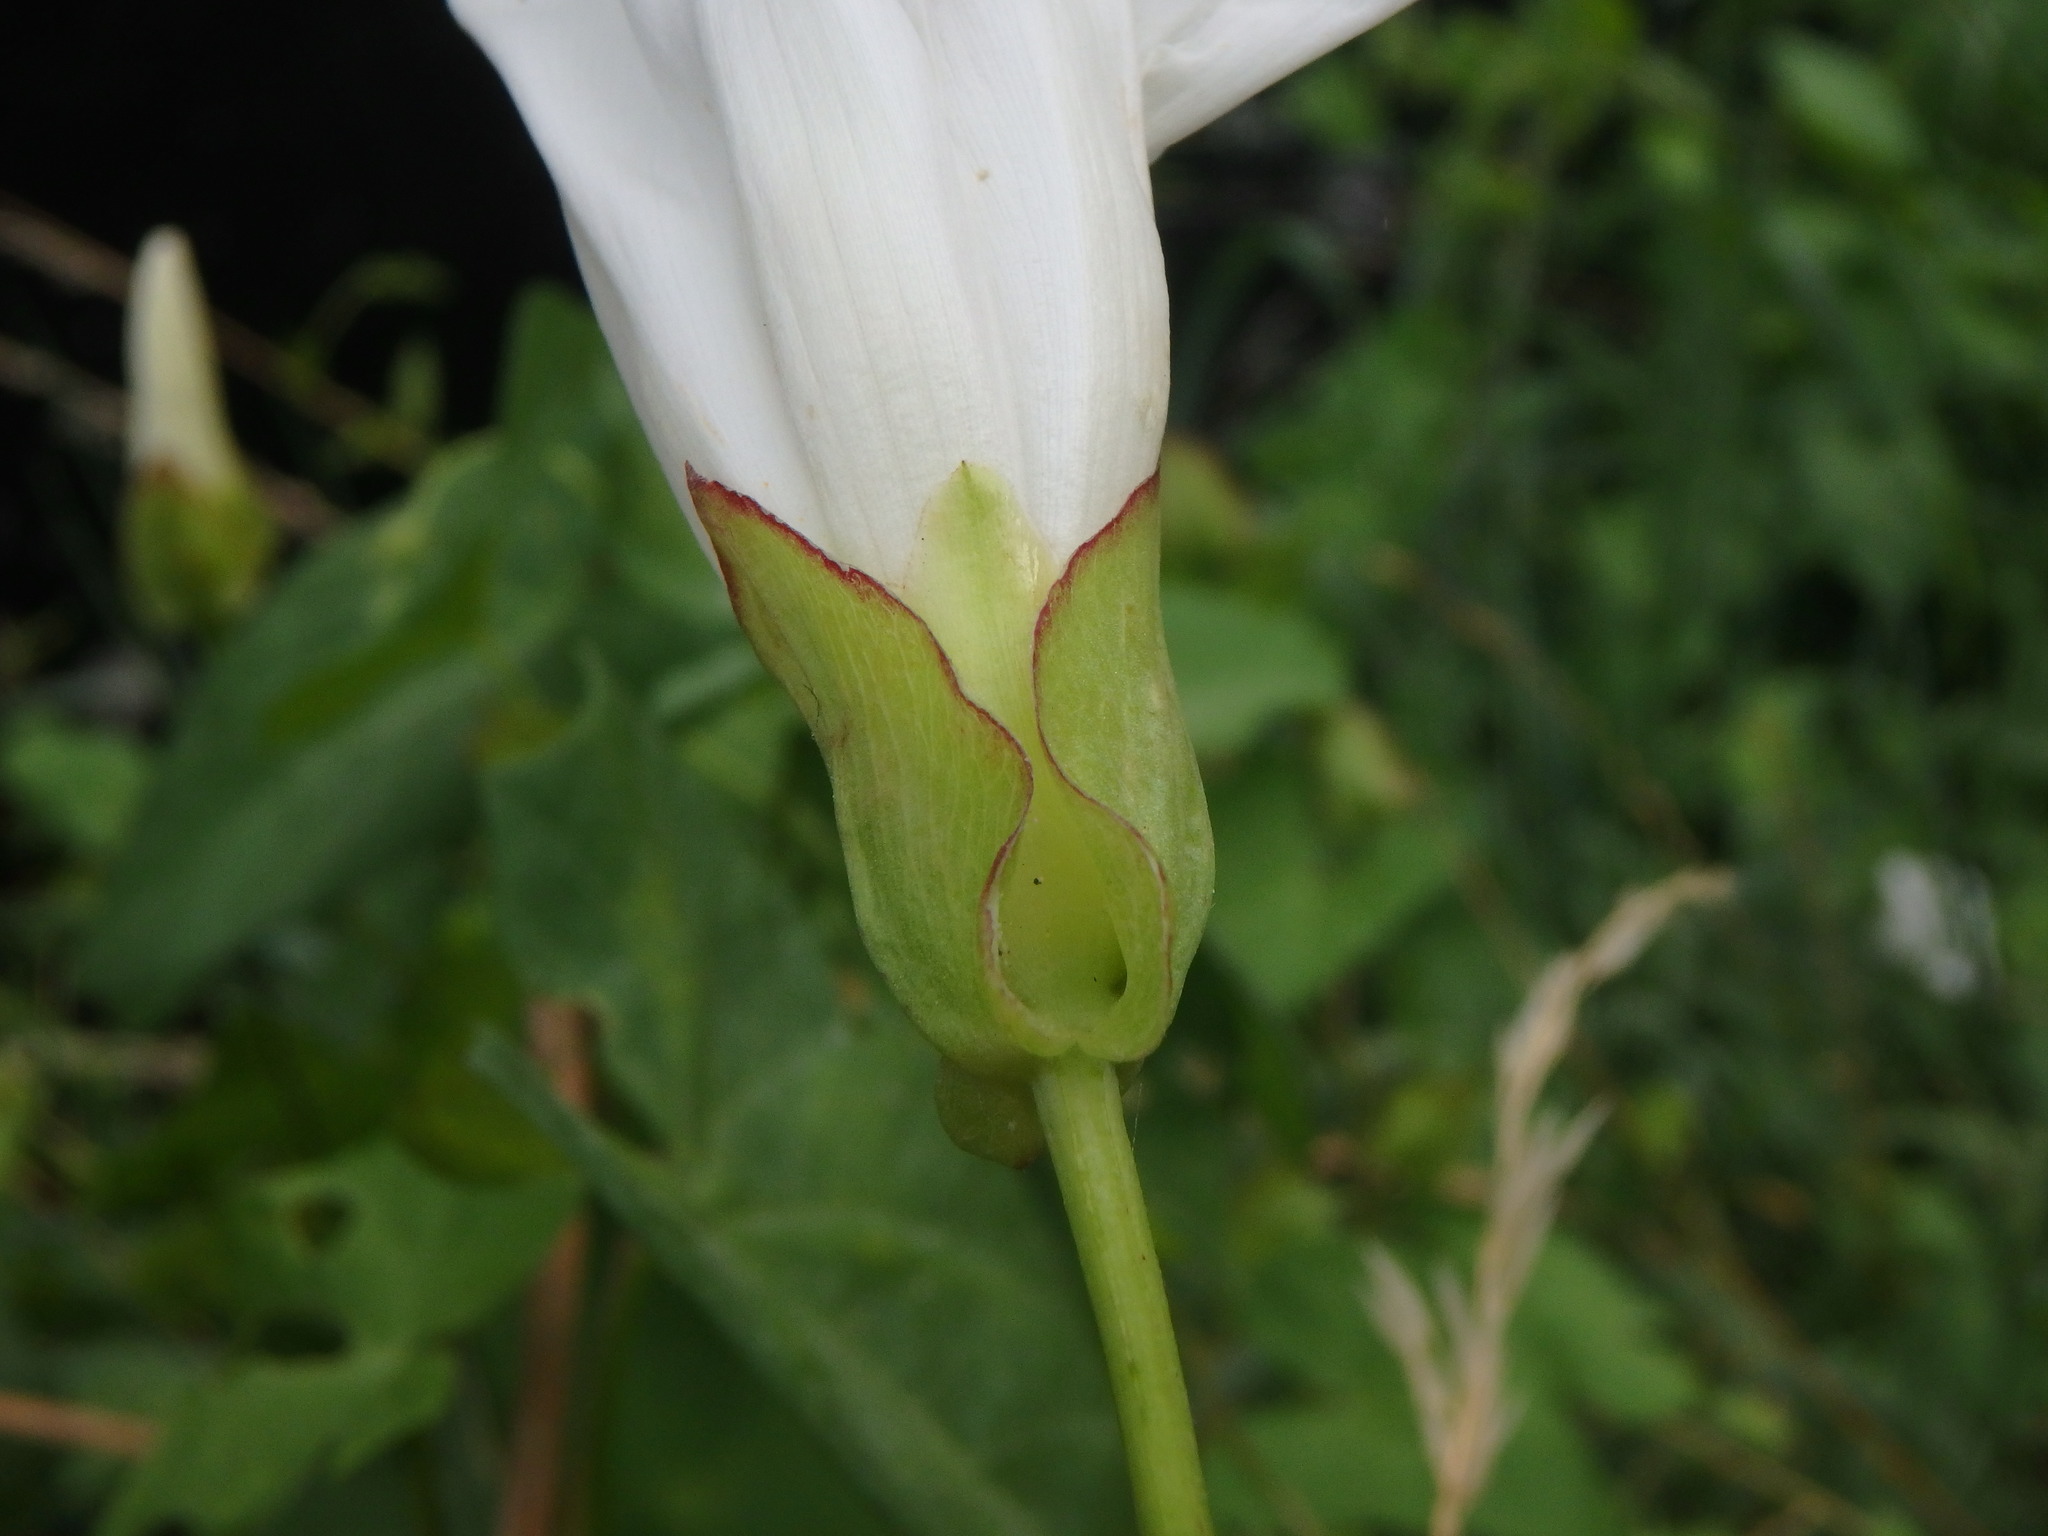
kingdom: Plantae
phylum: Tracheophyta
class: Magnoliopsida
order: Solanales
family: Convolvulaceae
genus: Calystegia
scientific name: Calystegia sepium
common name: Hedge bindweed
